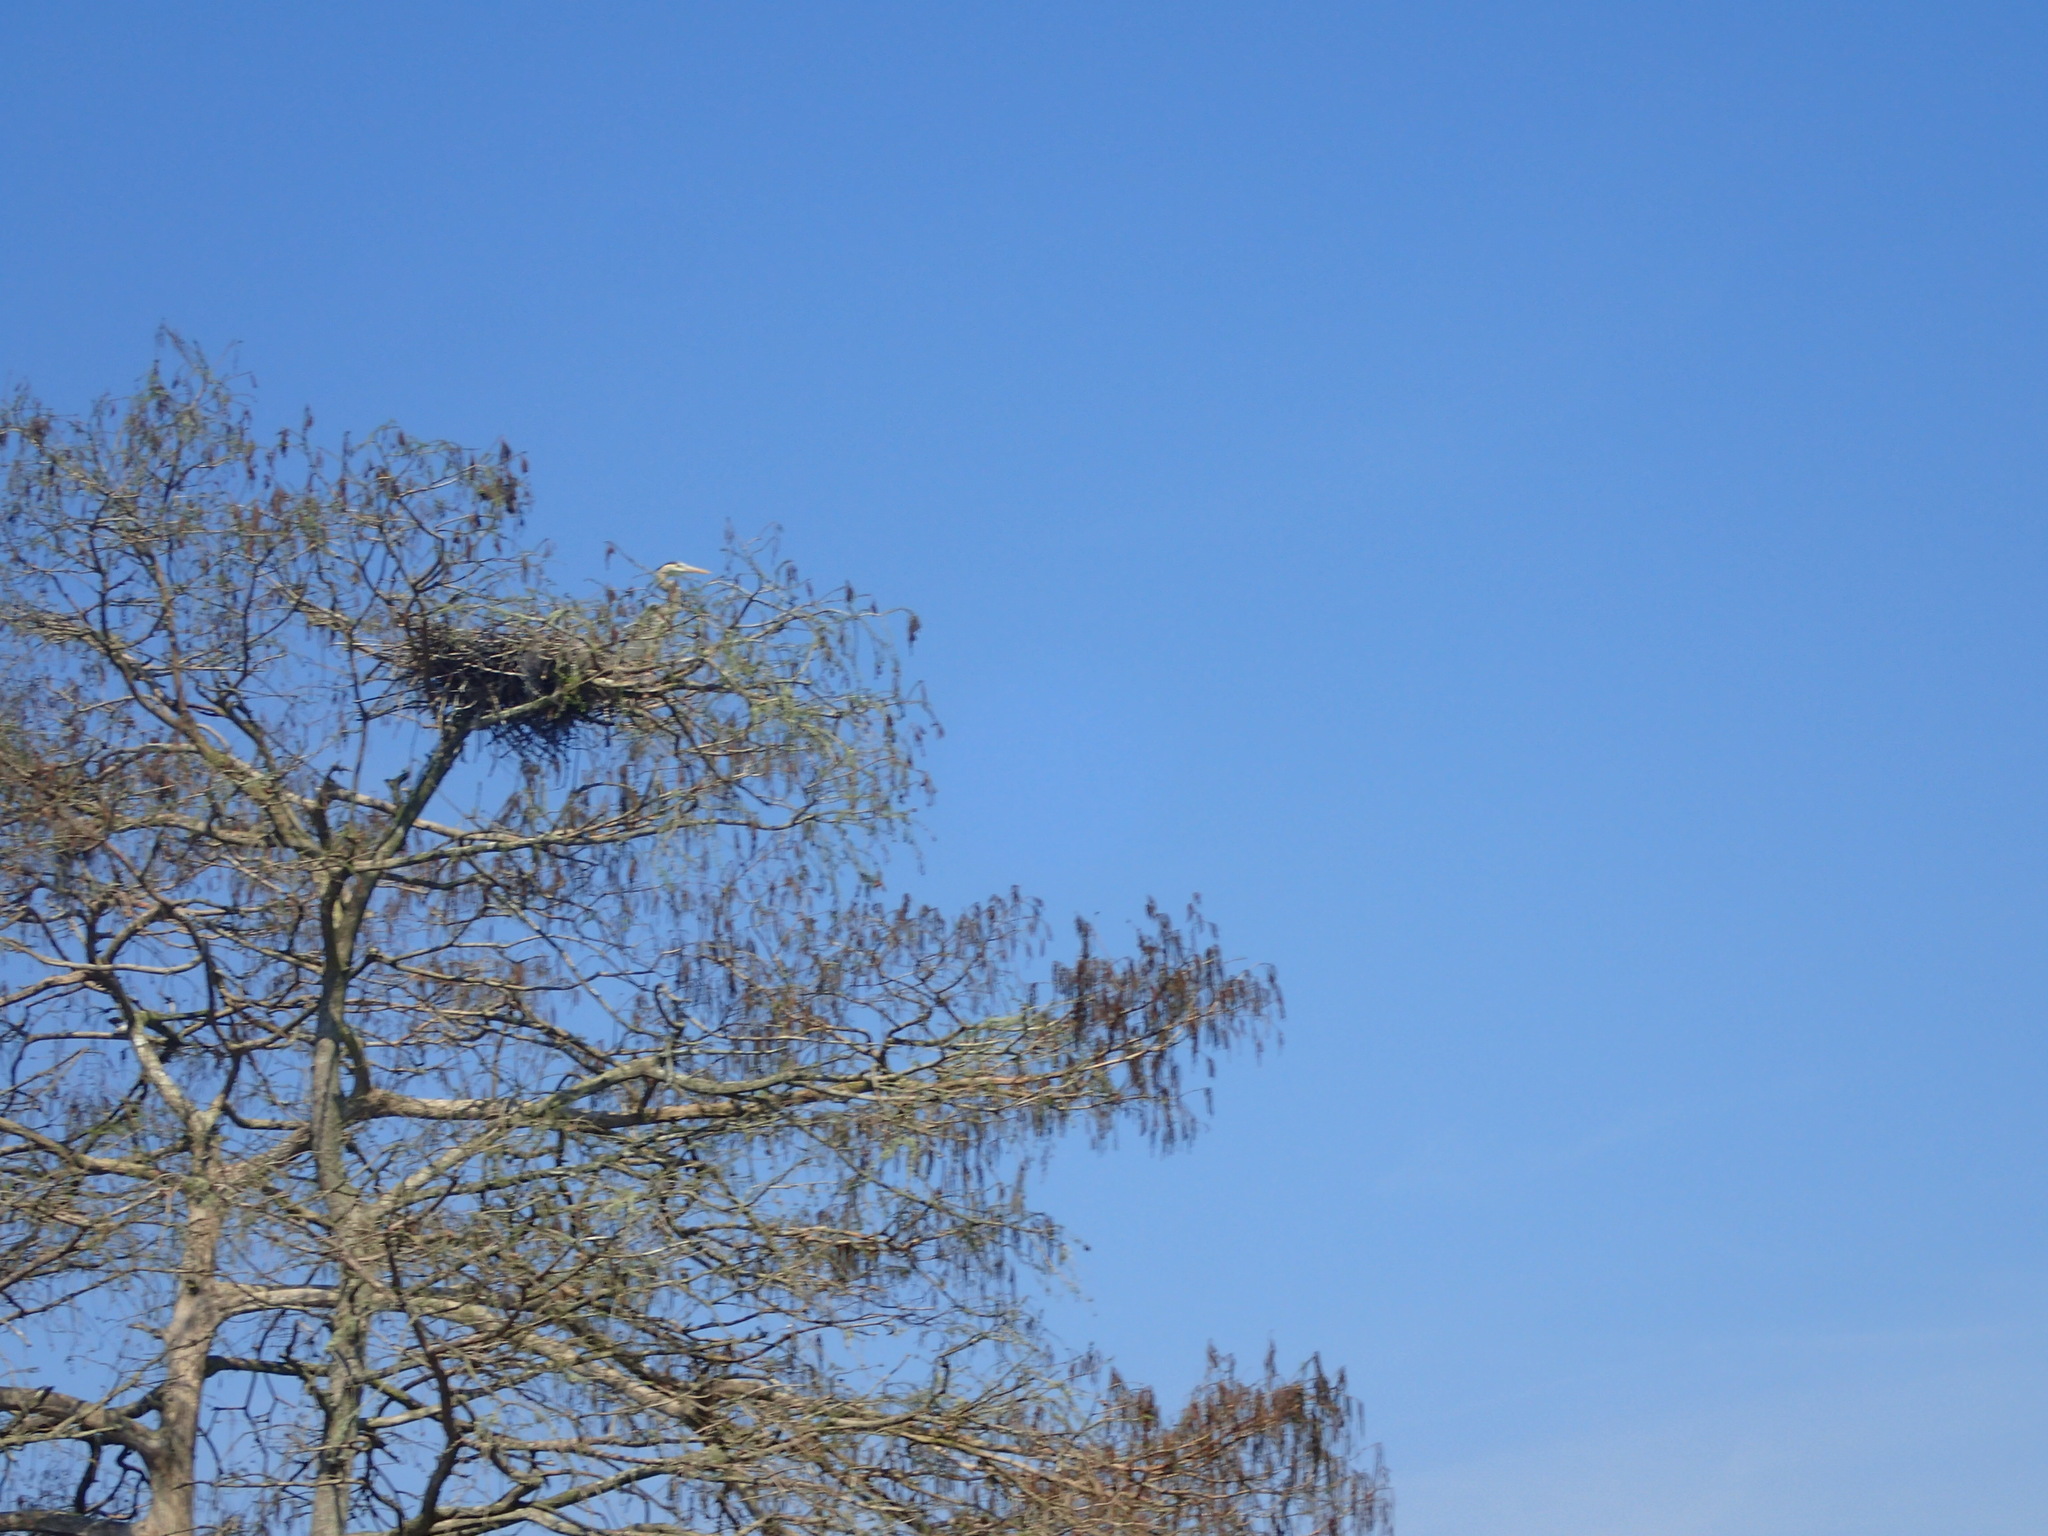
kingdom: Animalia
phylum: Chordata
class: Aves
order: Pelecaniformes
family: Ardeidae
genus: Ardea
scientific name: Ardea herodias
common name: Great blue heron
